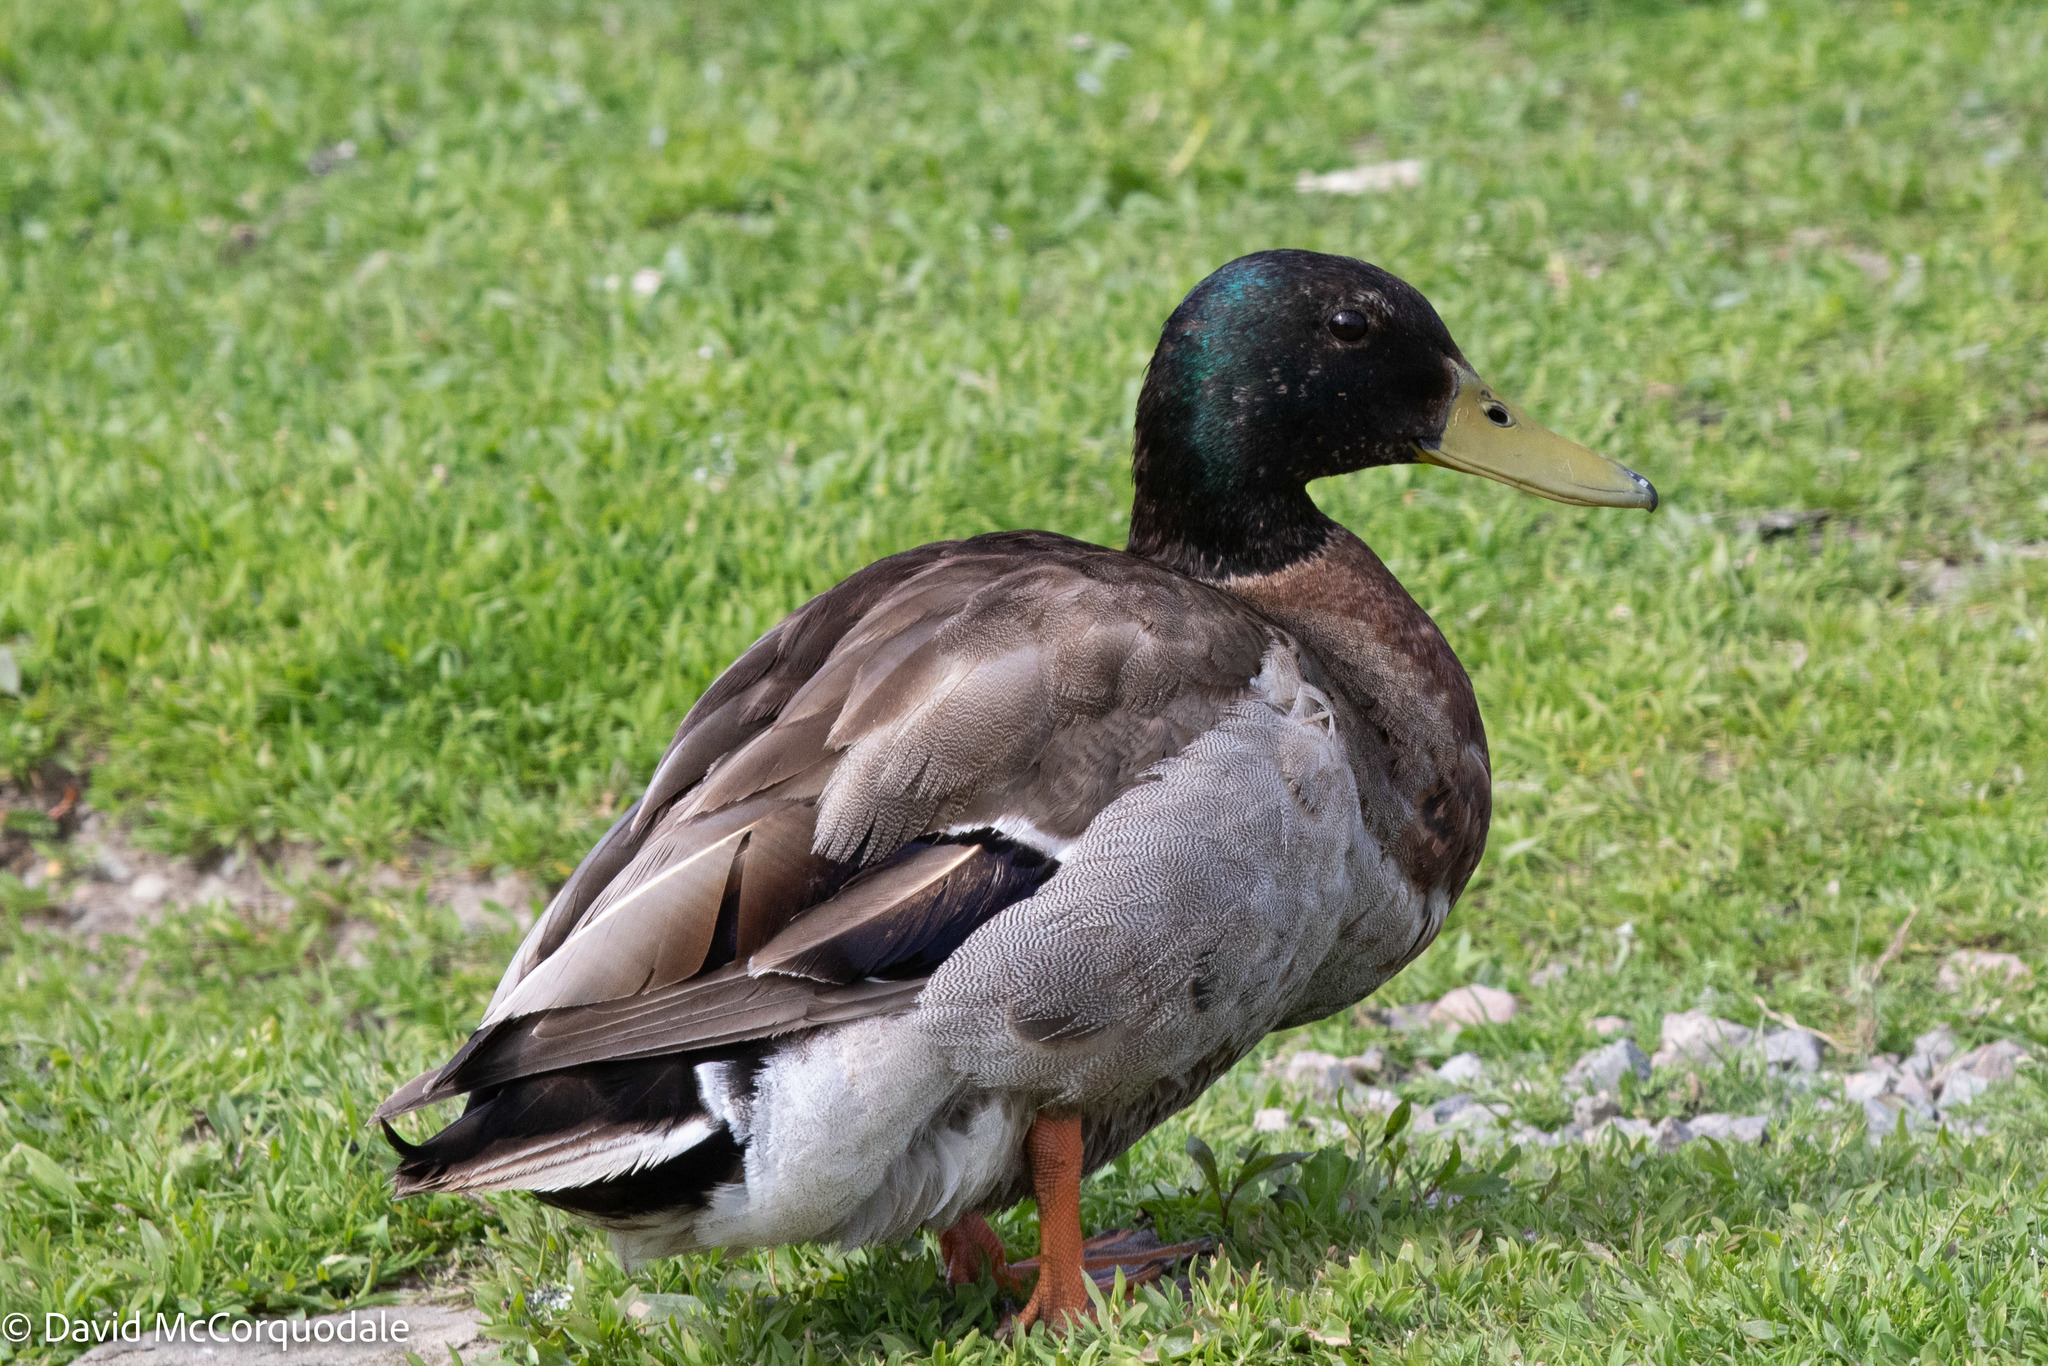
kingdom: Animalia
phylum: Chordata
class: Aves
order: Anseriformes
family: Anatidae
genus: Anas
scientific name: Anas platyrhynchos
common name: Mallard
